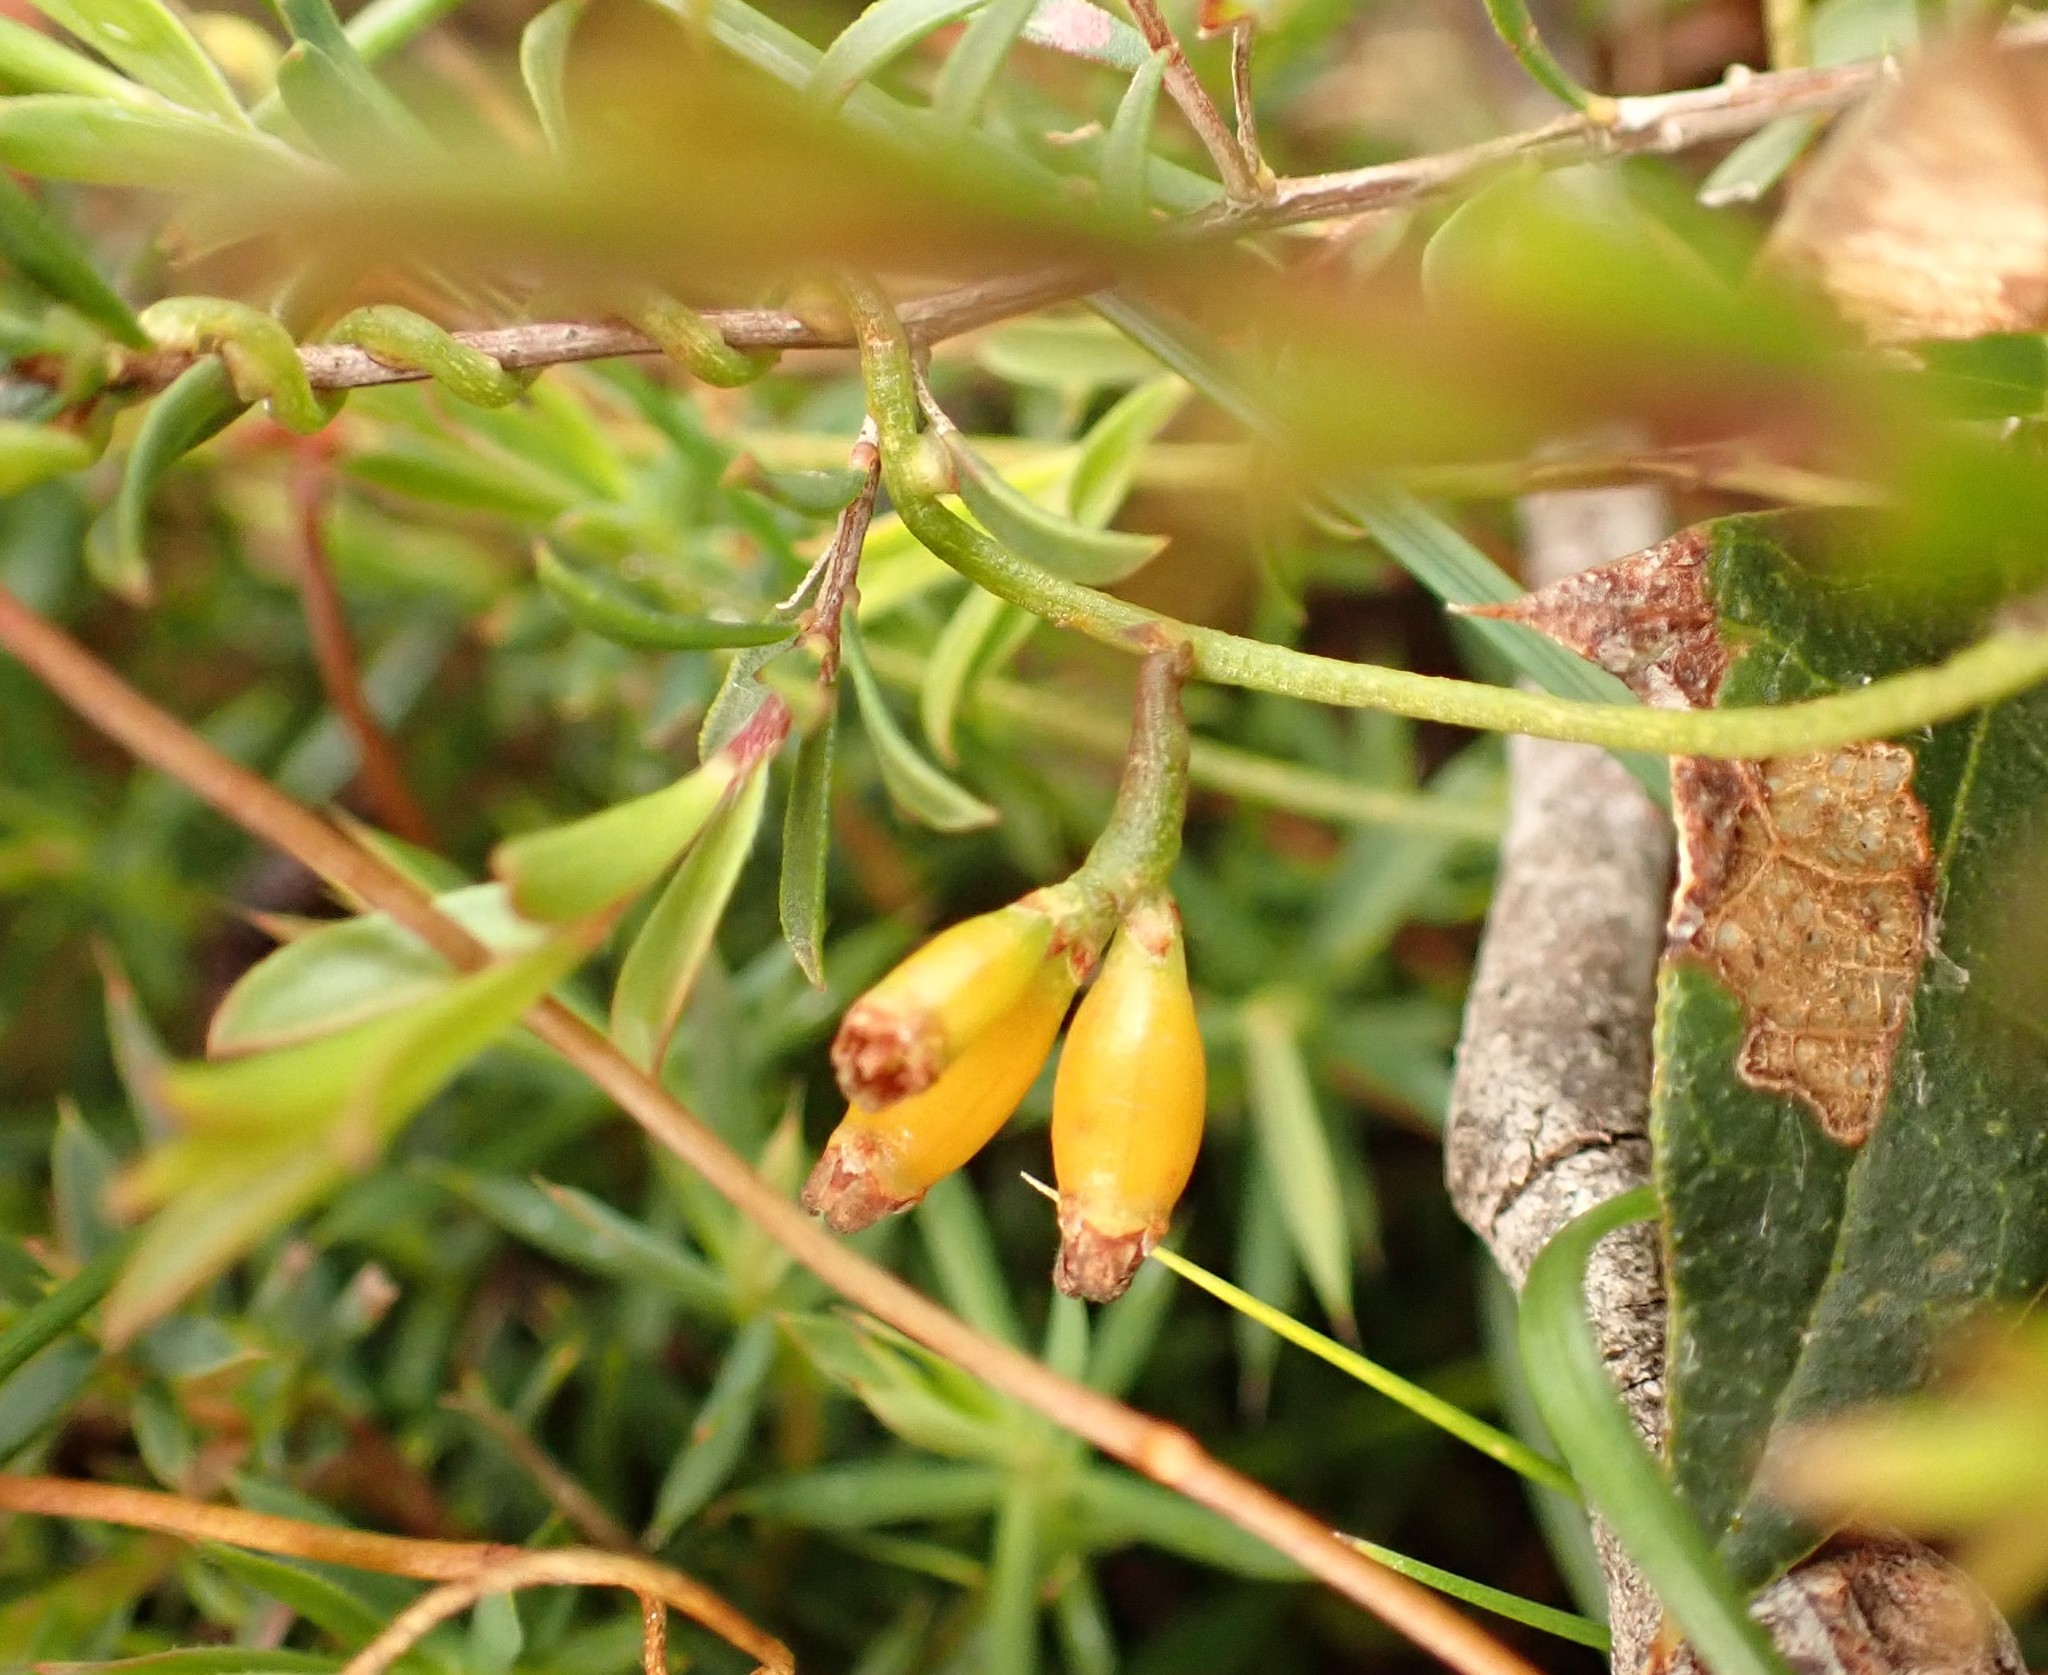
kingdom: Plantae
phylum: Tracheophyta
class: Magnoliopsida
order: Laurales
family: Lauraceae
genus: Cassytha
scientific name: Cassytha glabella
